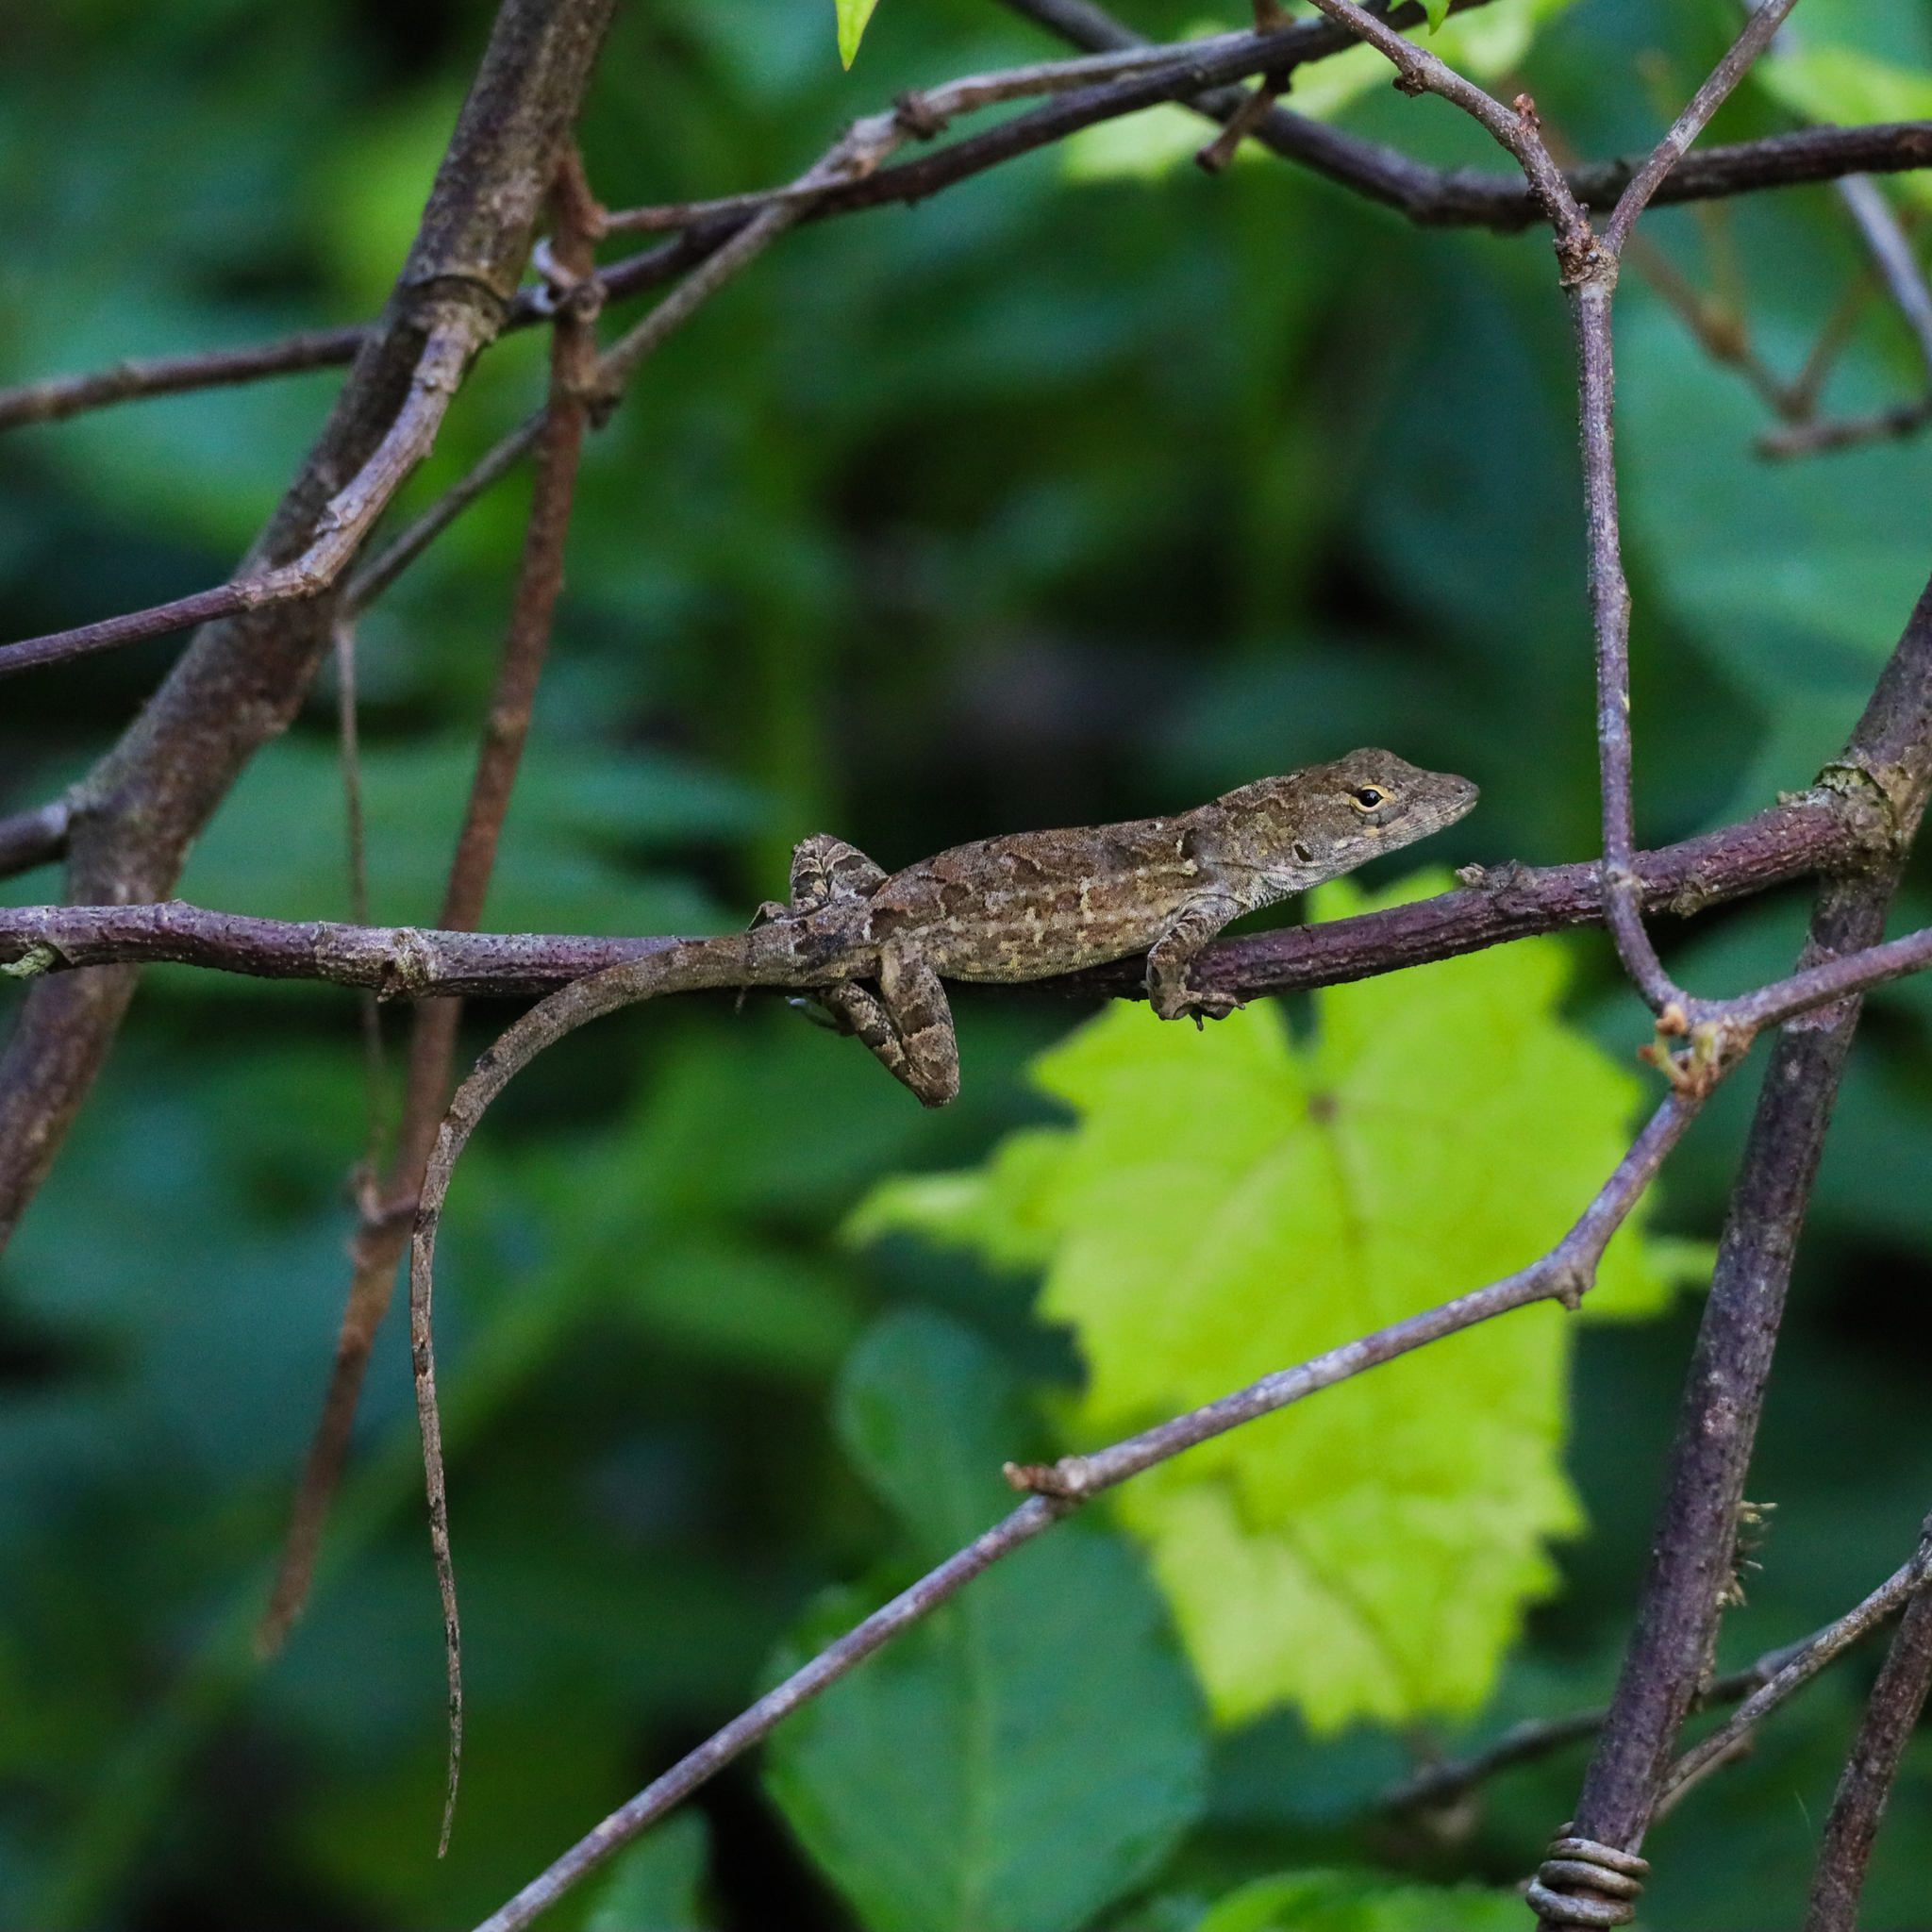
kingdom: Animalia
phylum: Chordata
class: Squamata
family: Dactyloidae
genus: Anolis
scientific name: Anolis sagrei
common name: Brown anole
